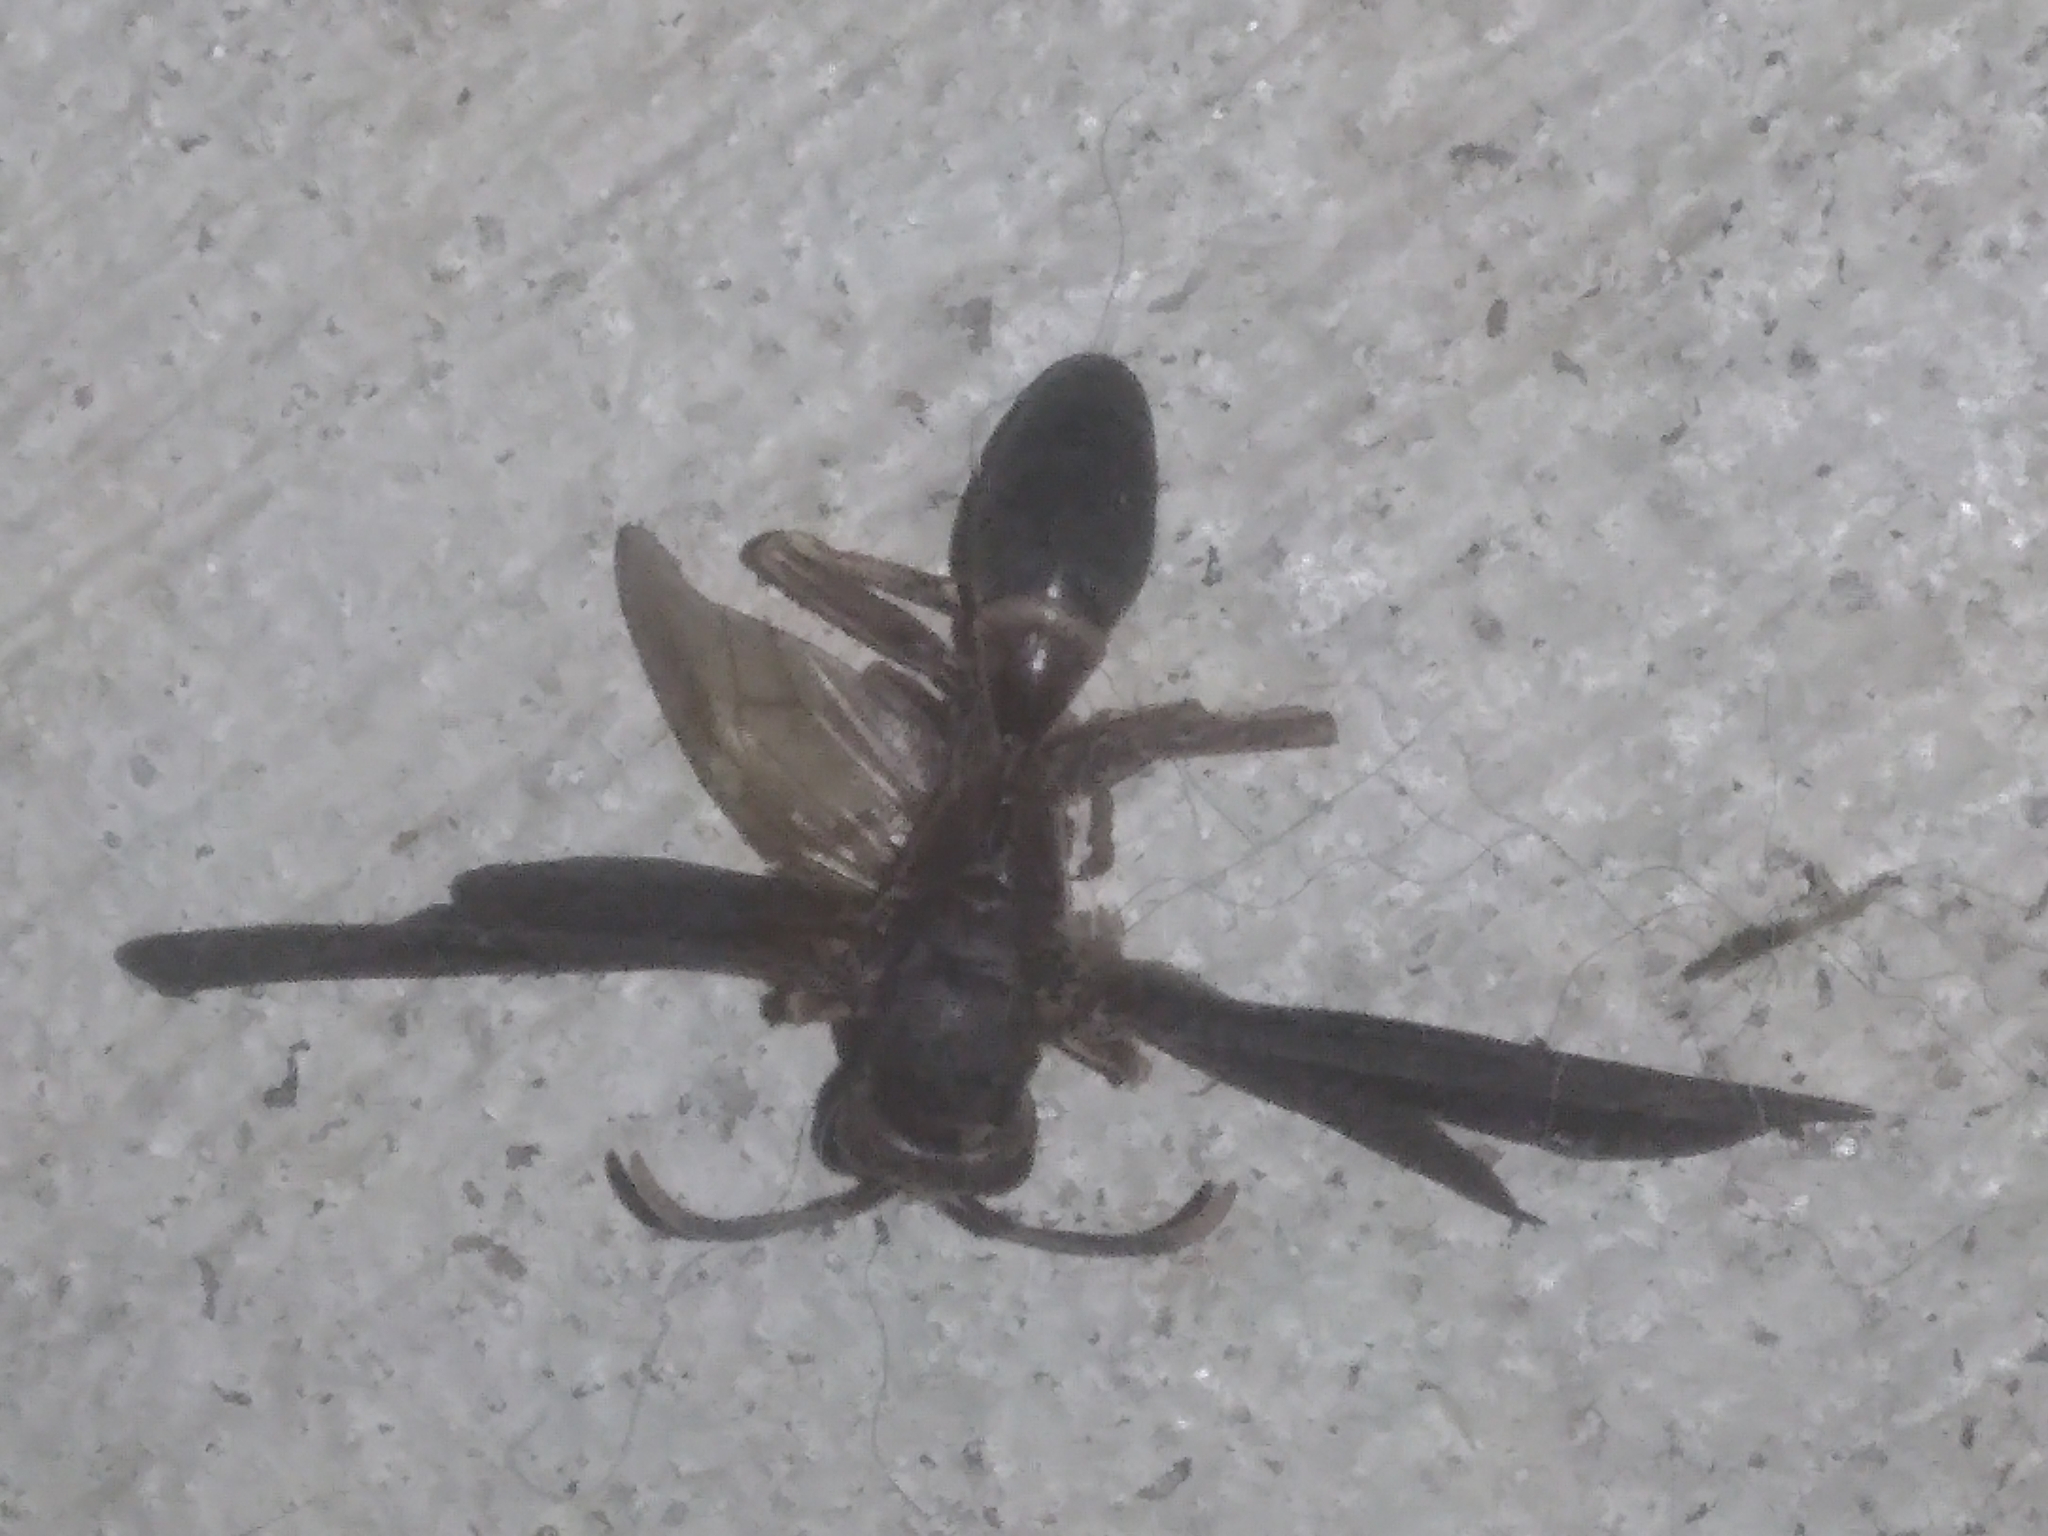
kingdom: Animalia
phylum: Arthropoda
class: Insecta
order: Hymenoptera
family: Eumenidae
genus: Polistes
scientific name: Polistes annularis
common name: Ringed paper wasp
